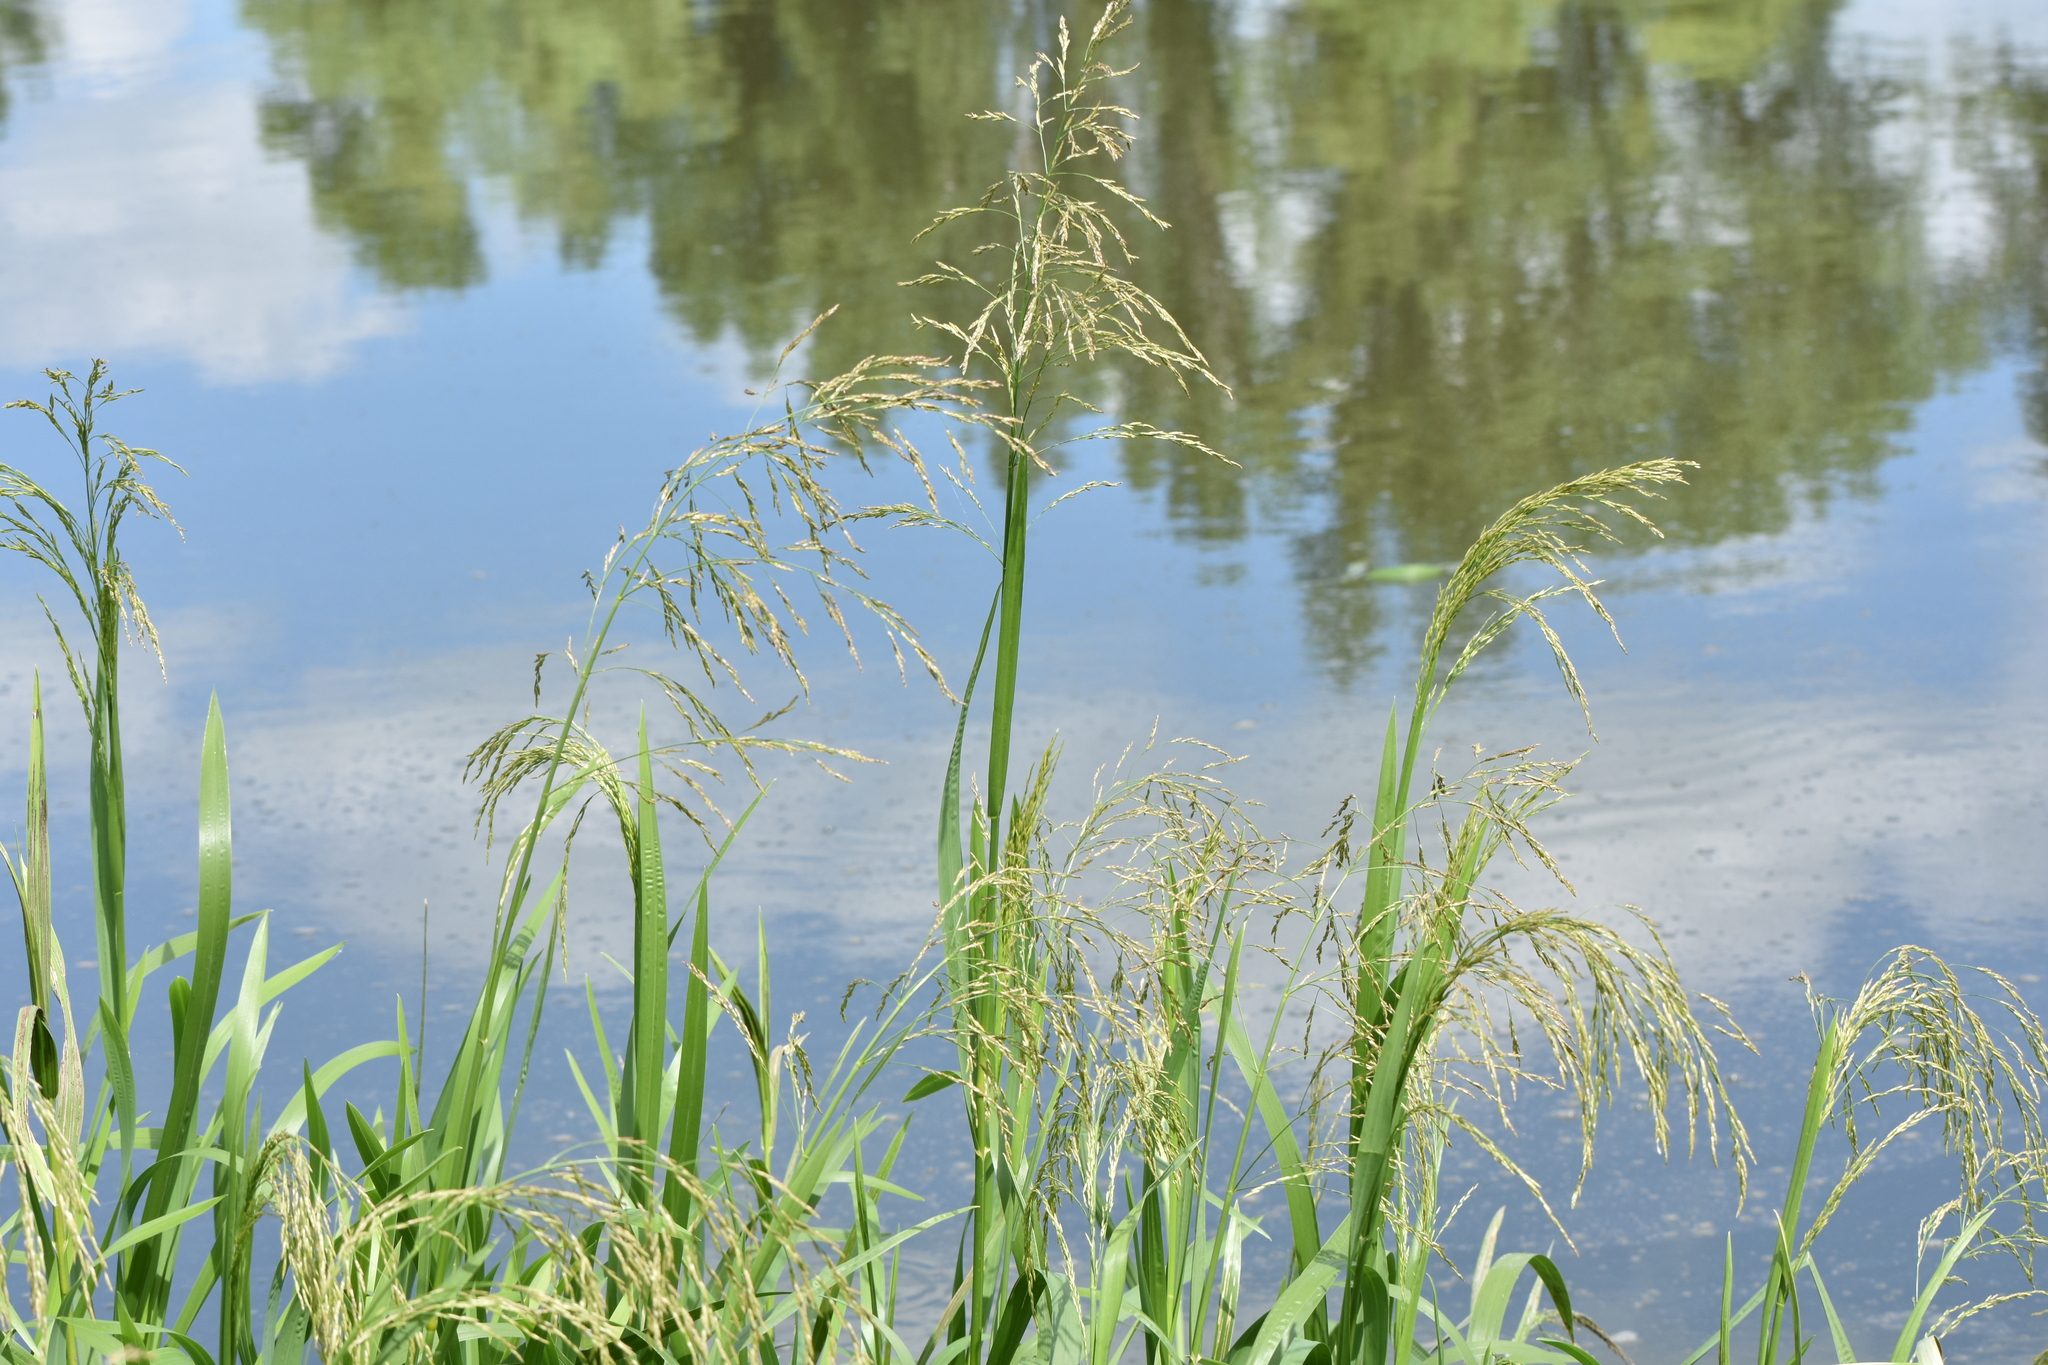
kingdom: Plantae
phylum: Tracheophyta
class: Liliopsida
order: Poales
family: Poaceae
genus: Glyceria
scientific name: Glyceria maxima
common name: Reed mannagrass
